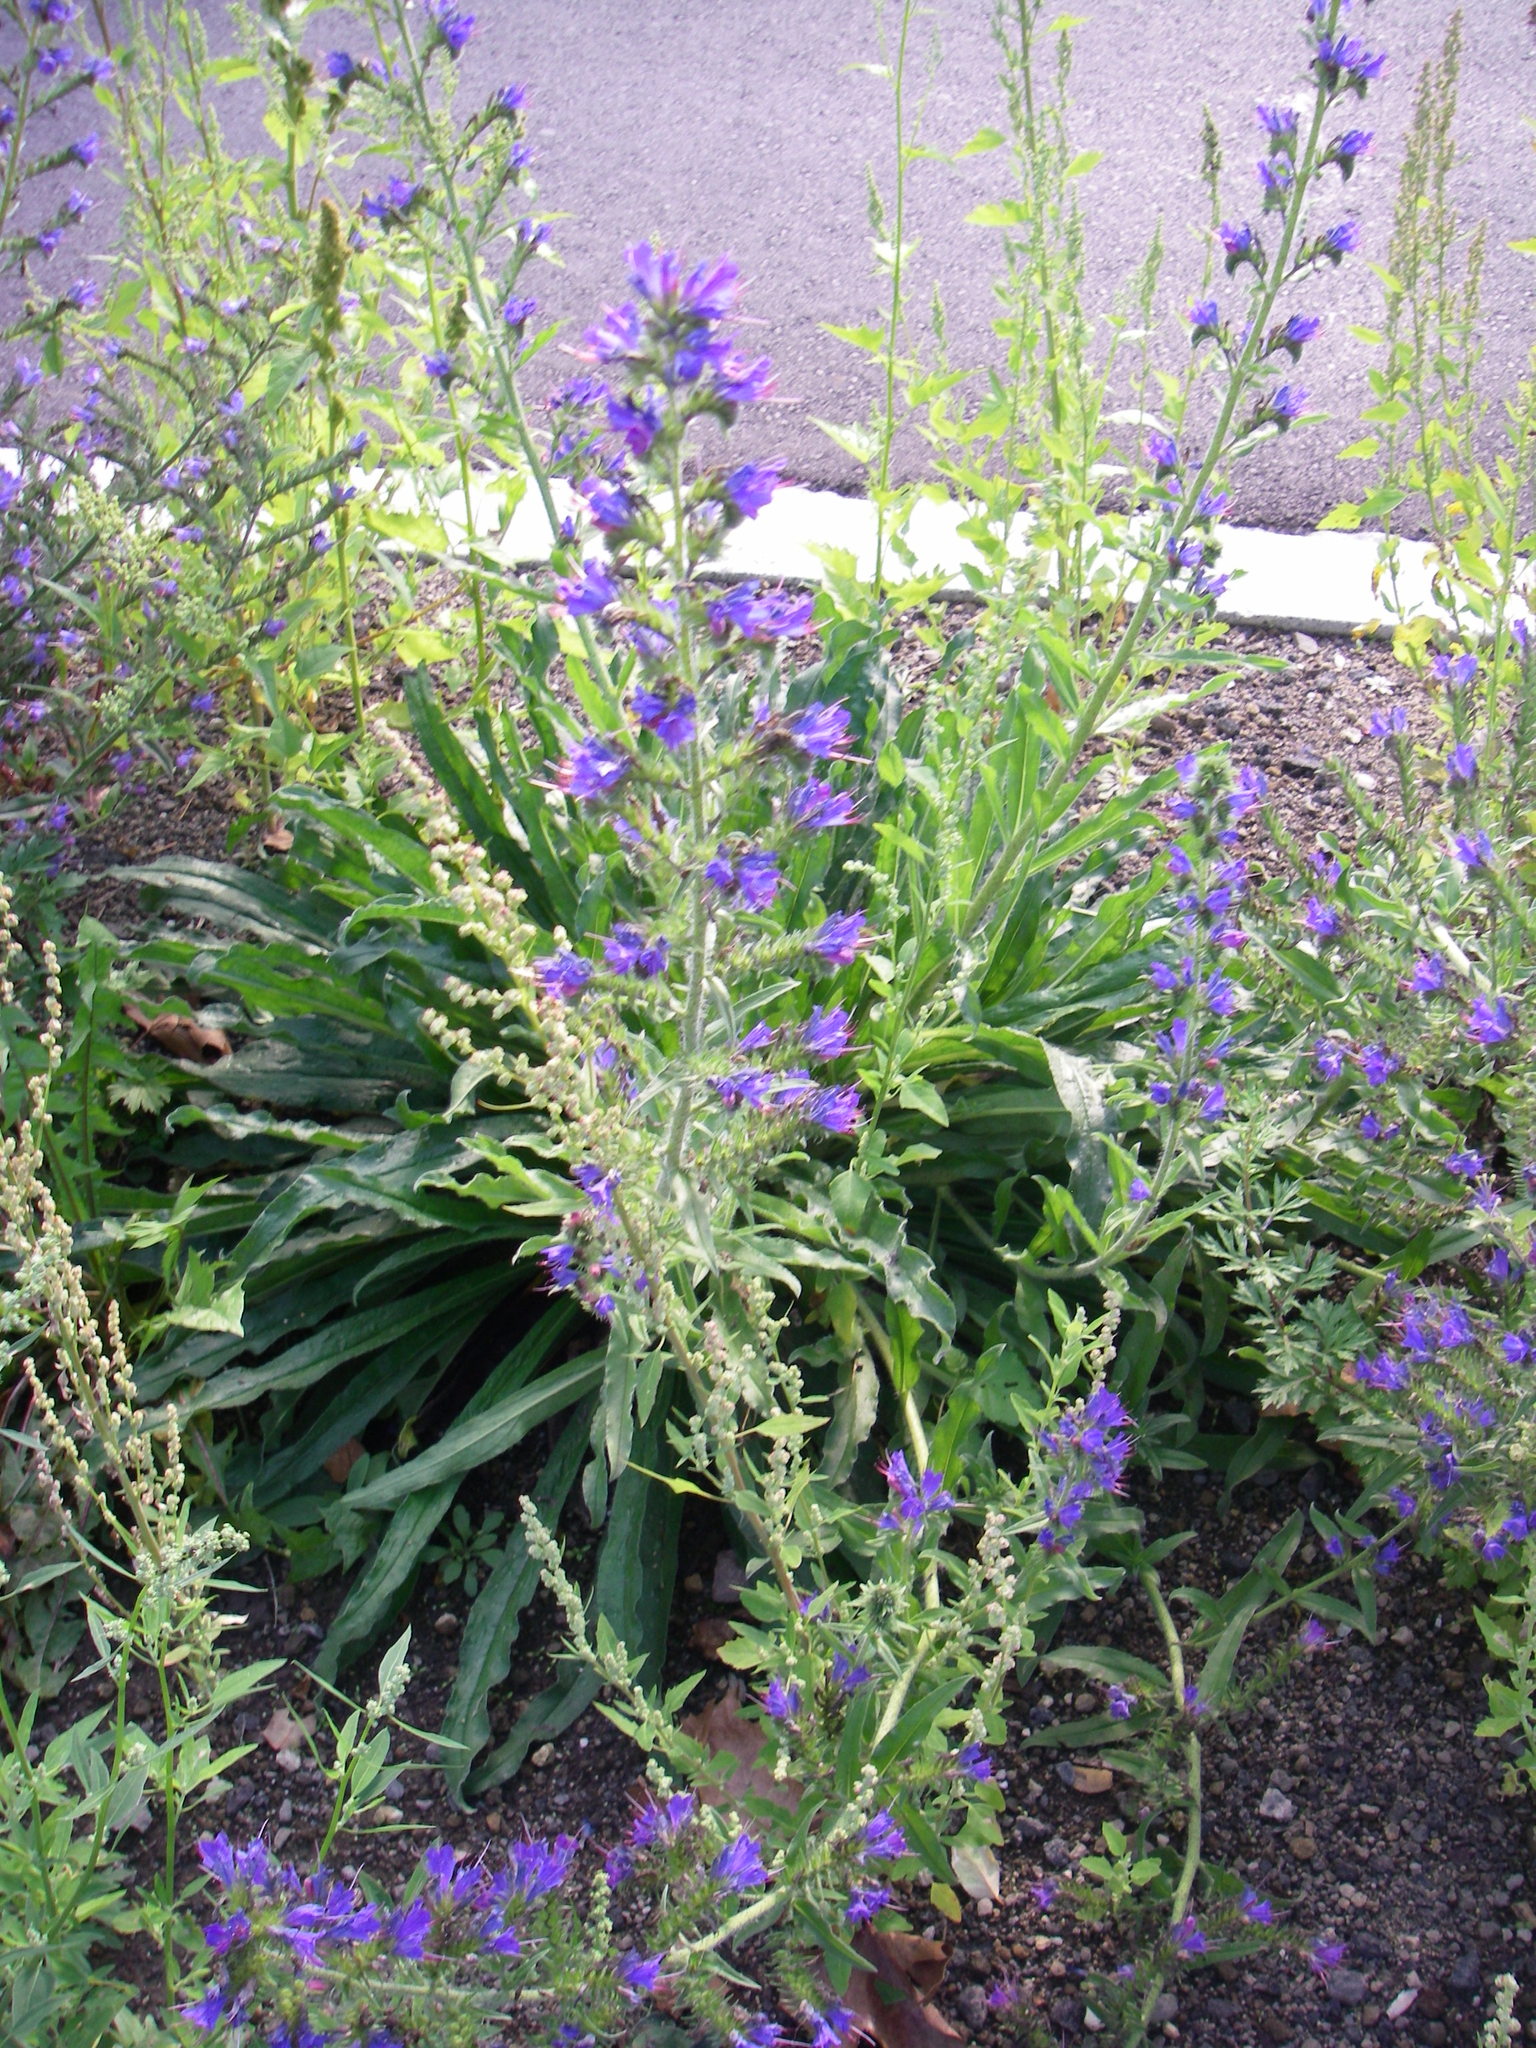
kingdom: Plantae
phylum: Tracheophyta
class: Magnoliopsida
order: Boraginales
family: Boraginaceae
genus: Echium
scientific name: Echium vulgare
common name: Common viper's bugloss
